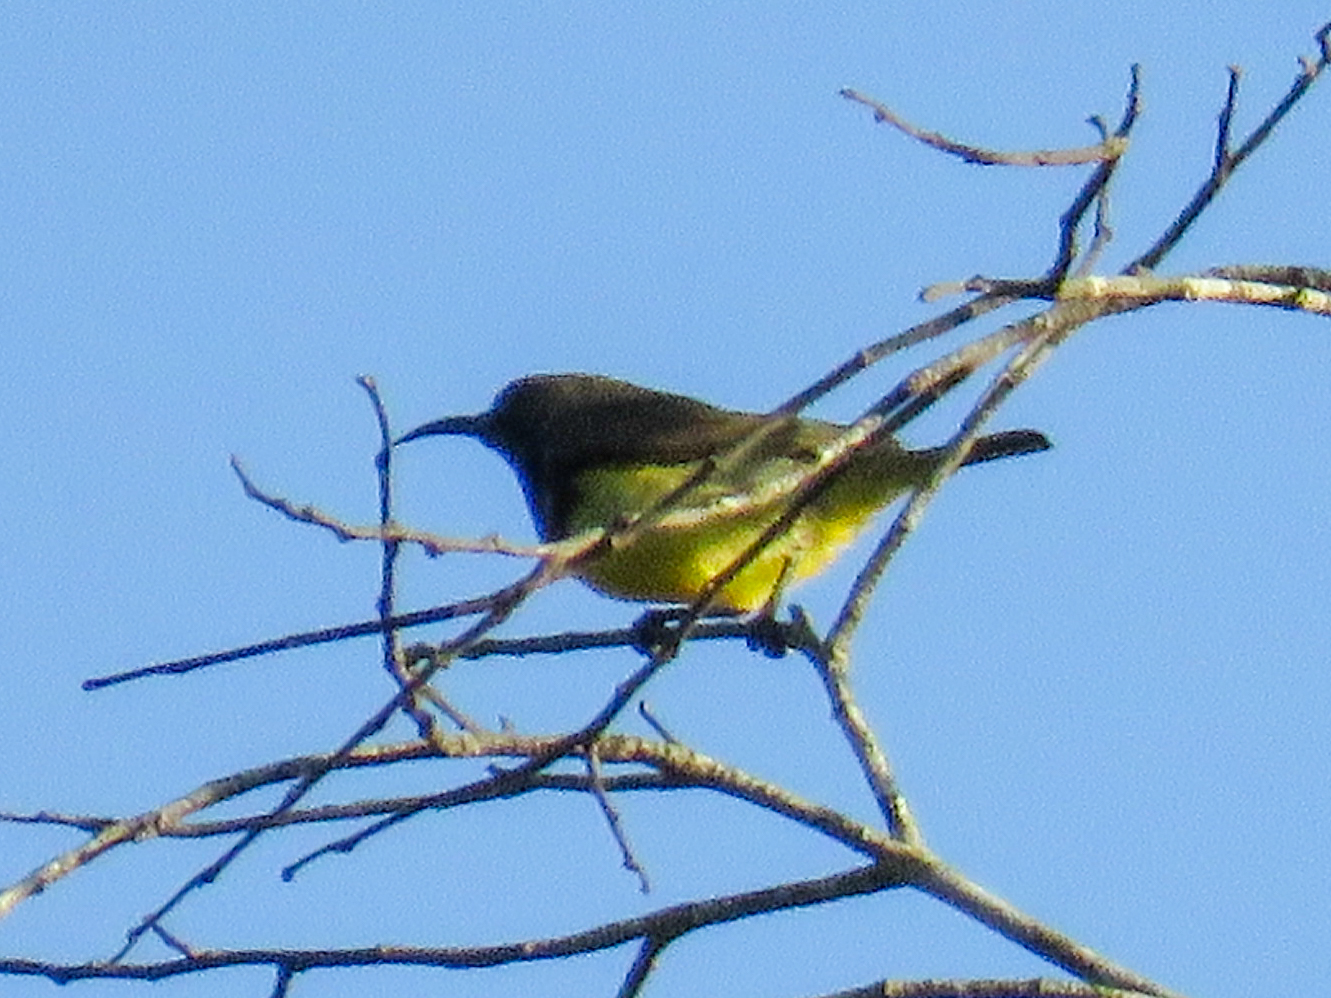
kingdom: Animalia
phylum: Chordata
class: Aves
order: Passeriformes
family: Nectariniidae
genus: Cinnyris
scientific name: Cinnyris
